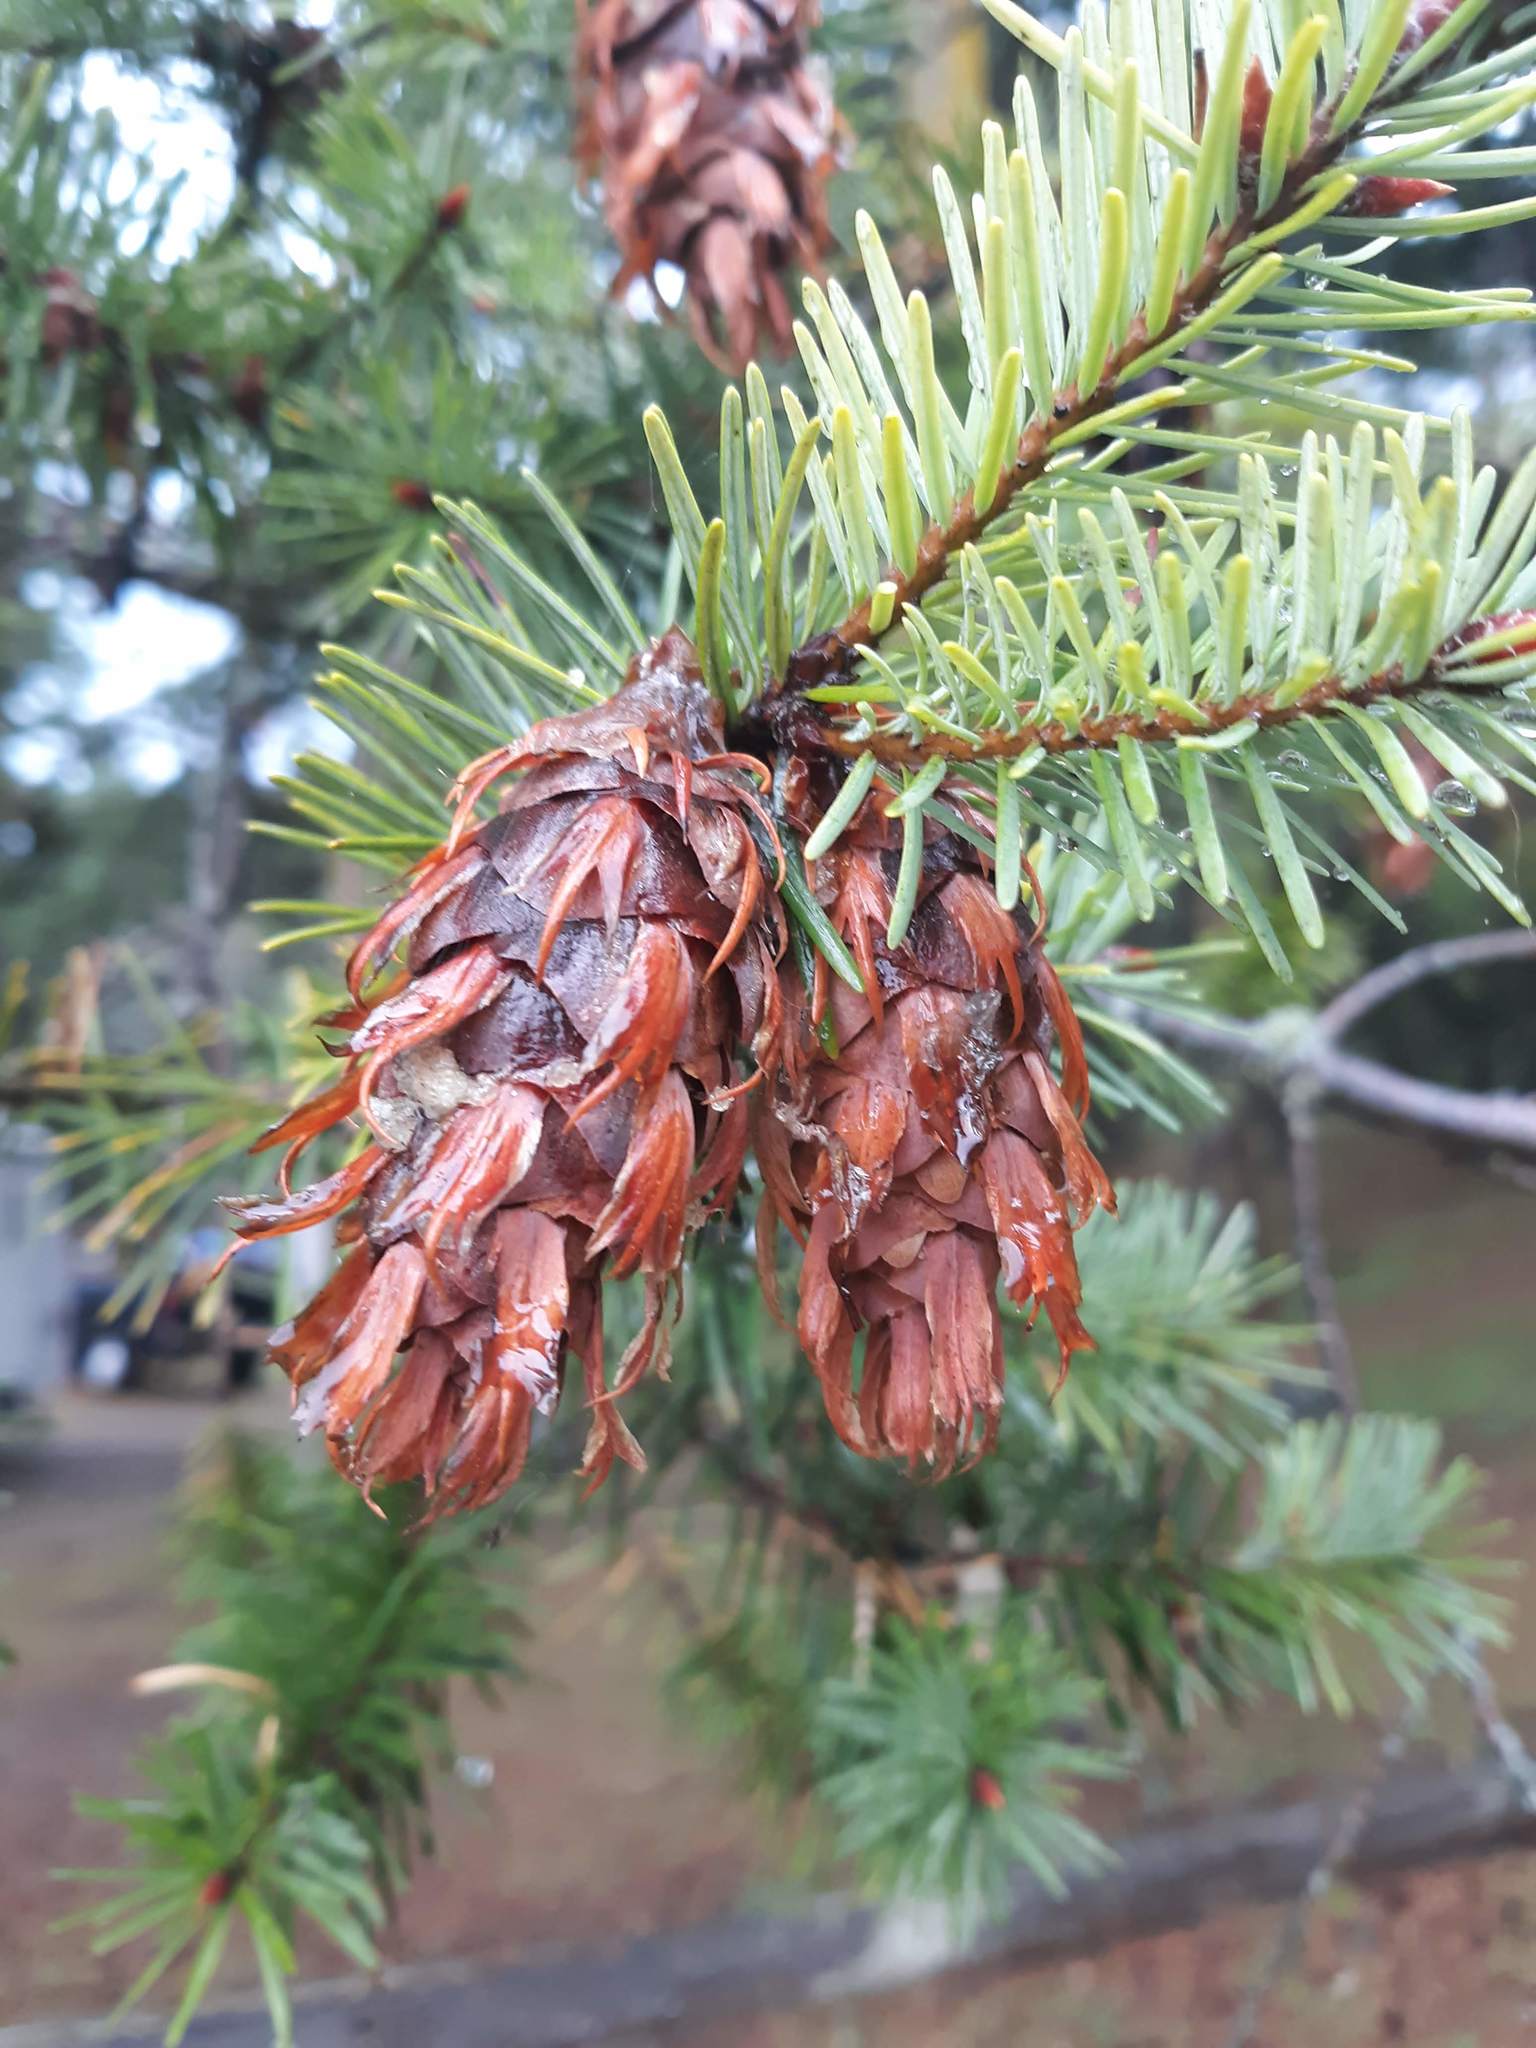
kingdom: Plantae
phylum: Tracheophyta
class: Pinopsida
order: Pinales
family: Pinaceae
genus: Pseudotsuga
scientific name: Pseudotsuga menziesii
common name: Douglas fir
